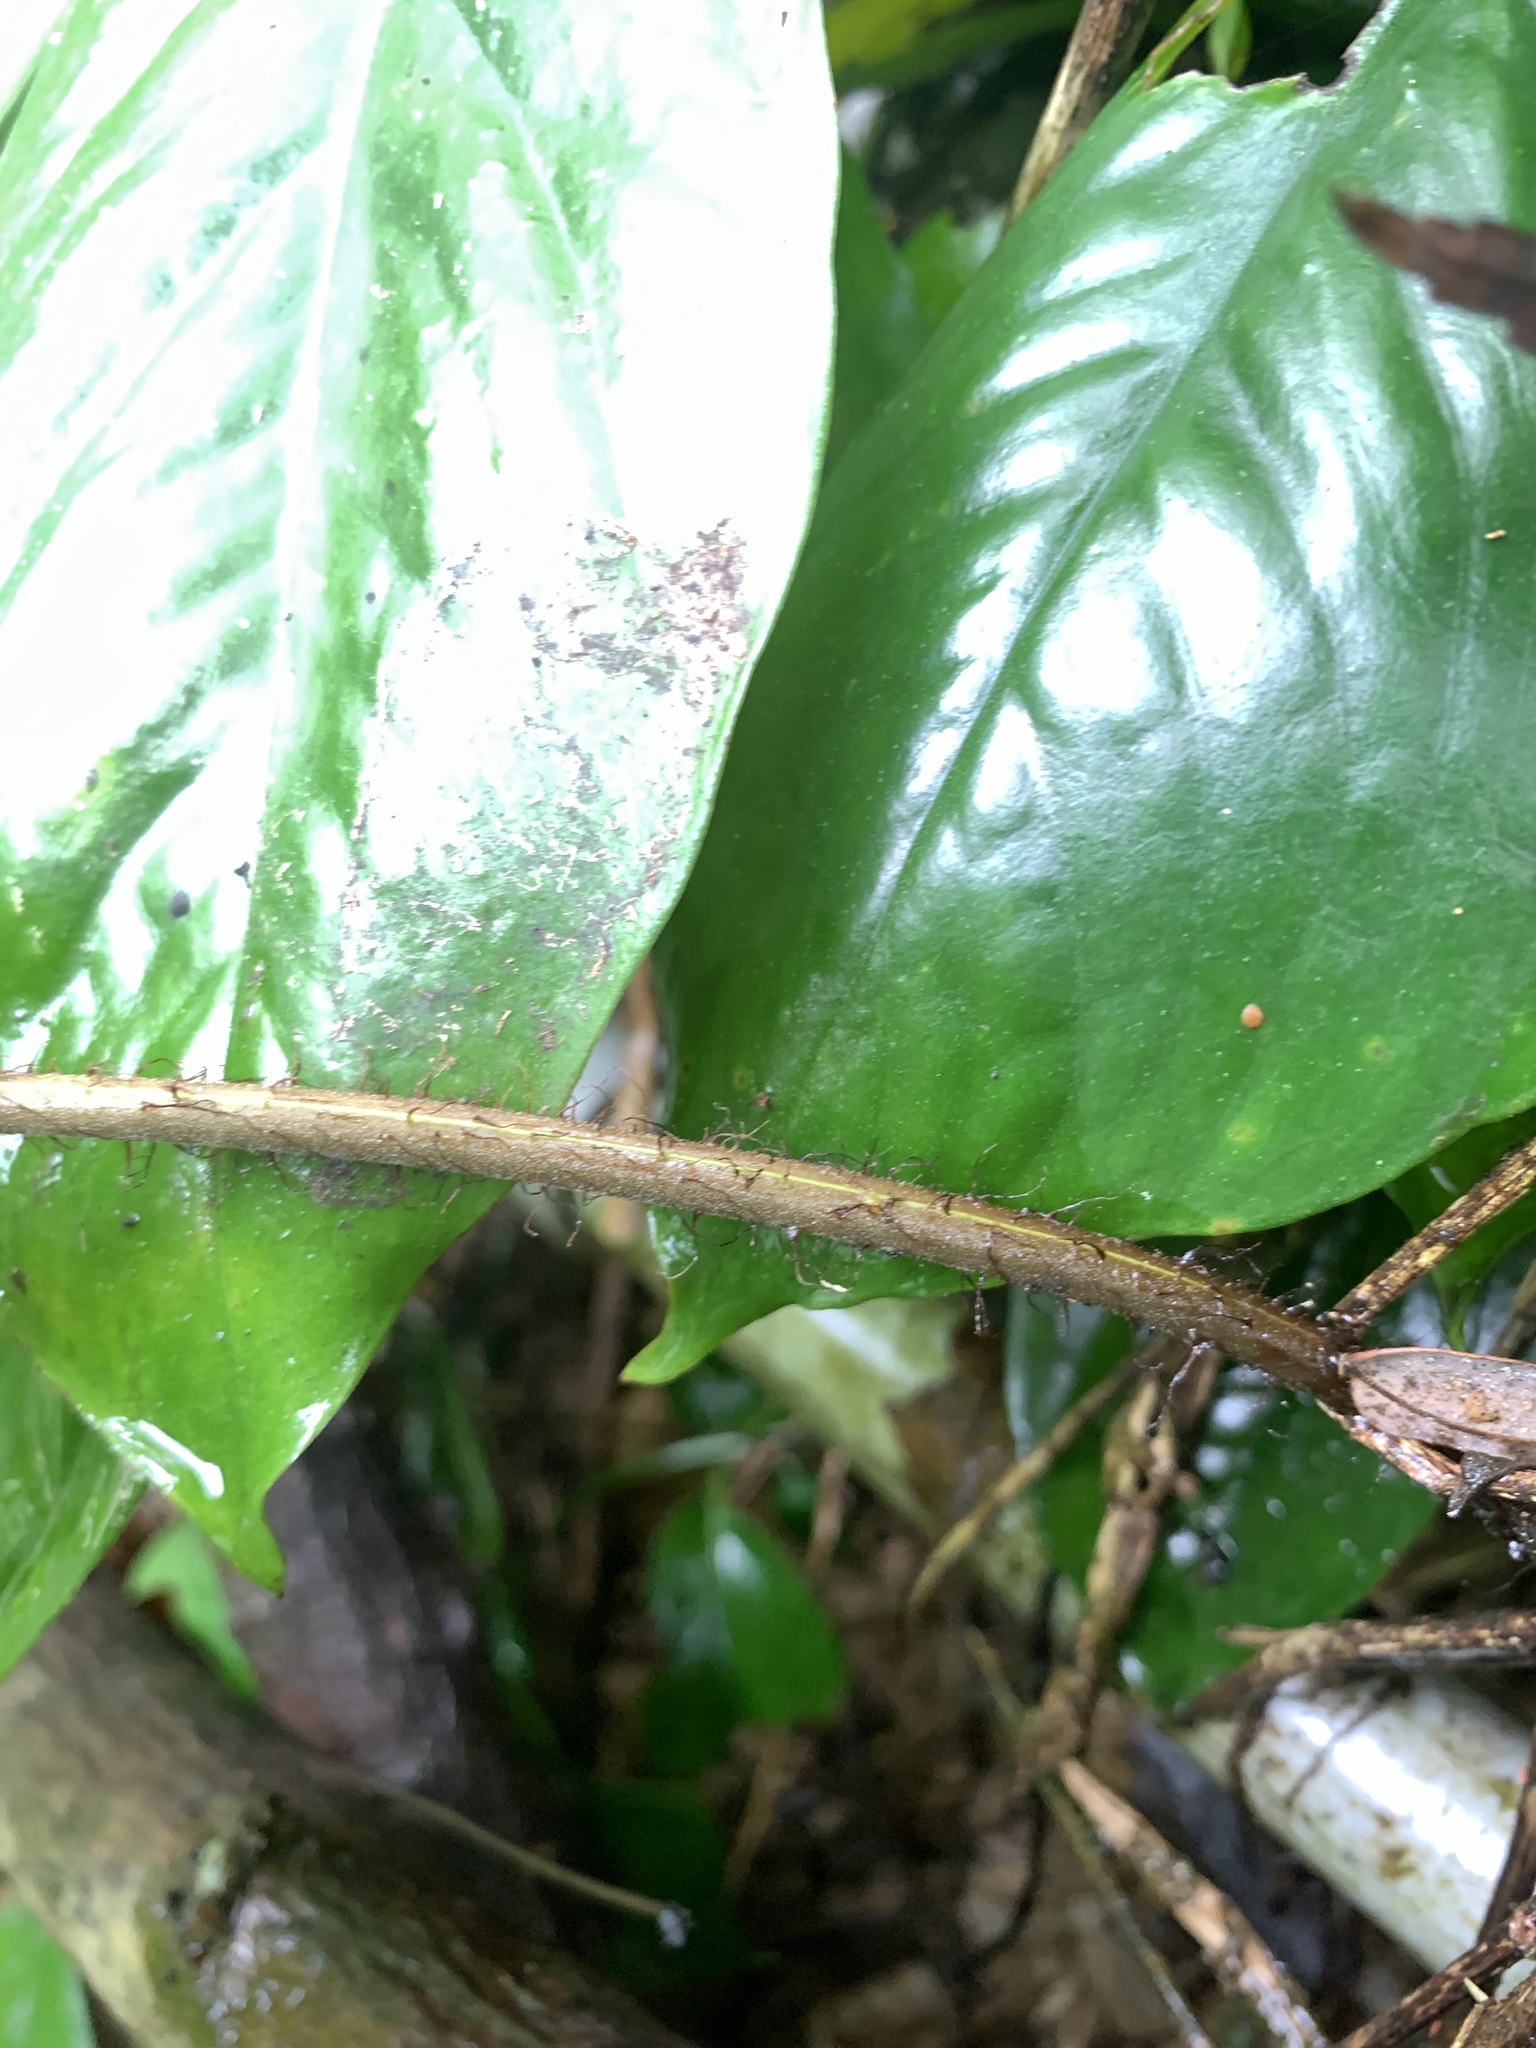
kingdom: Plantae
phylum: Tracheophyta
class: Polypodiopsida
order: Polypodiales
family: Tectariaceae
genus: Tectaria
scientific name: Tectaria multicaudata
